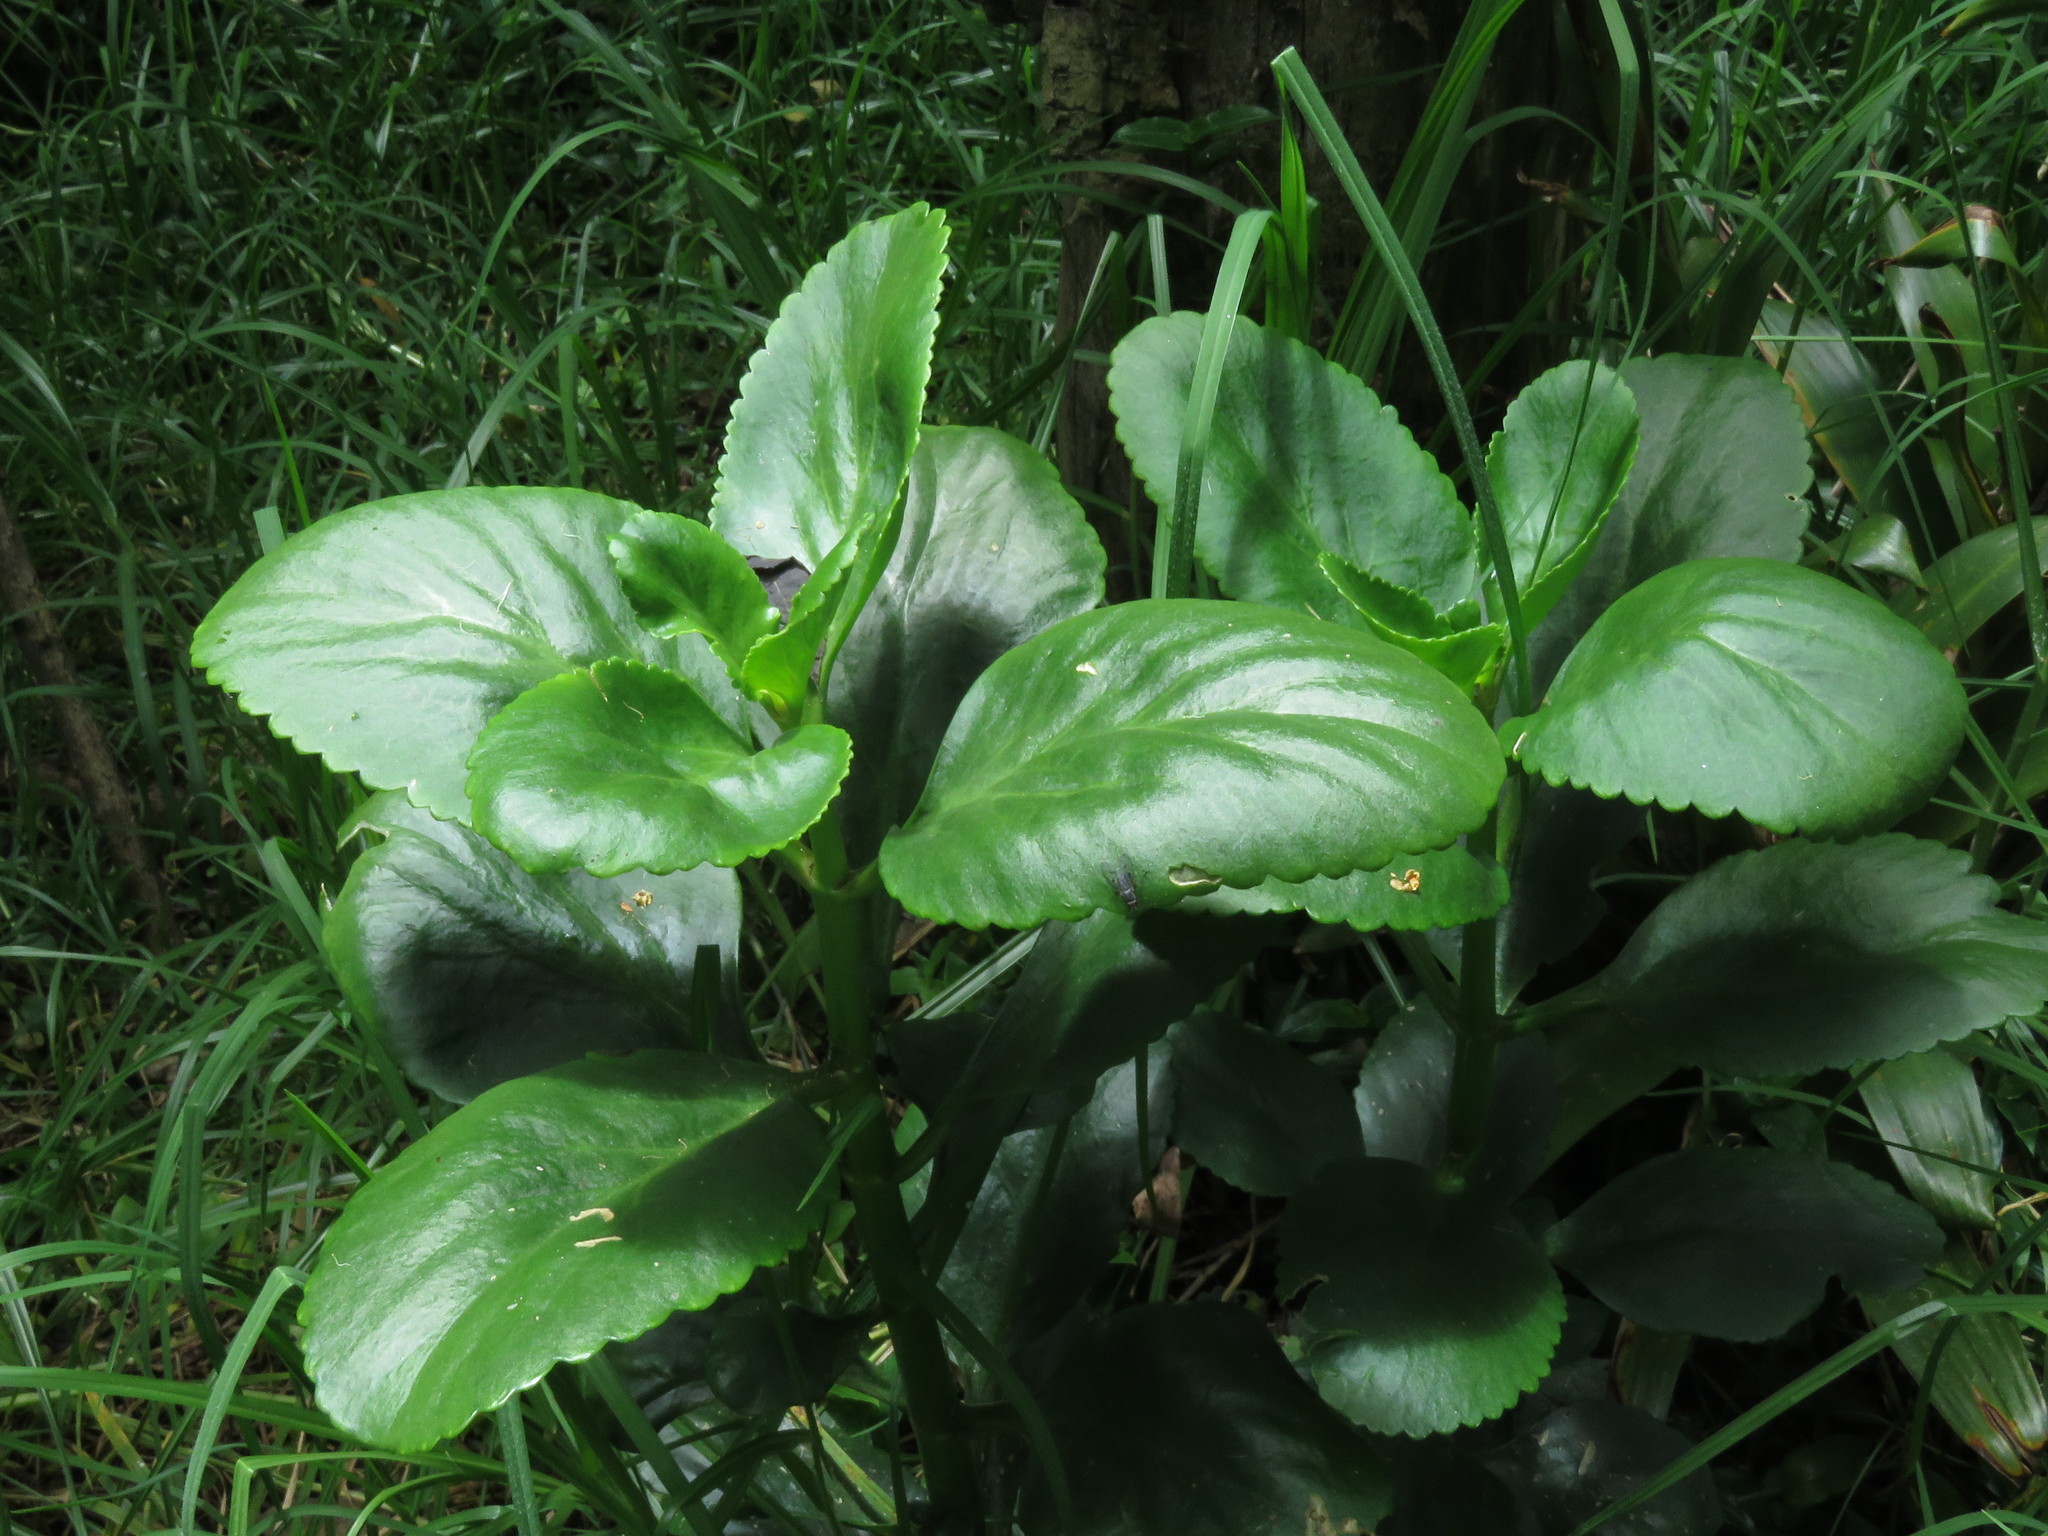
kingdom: Plantae
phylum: Tracheophyta
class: Magnoliopsida
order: Saxifragales
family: Crassulaceae
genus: Kalanchoe
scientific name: Kalanchoe densiflora
